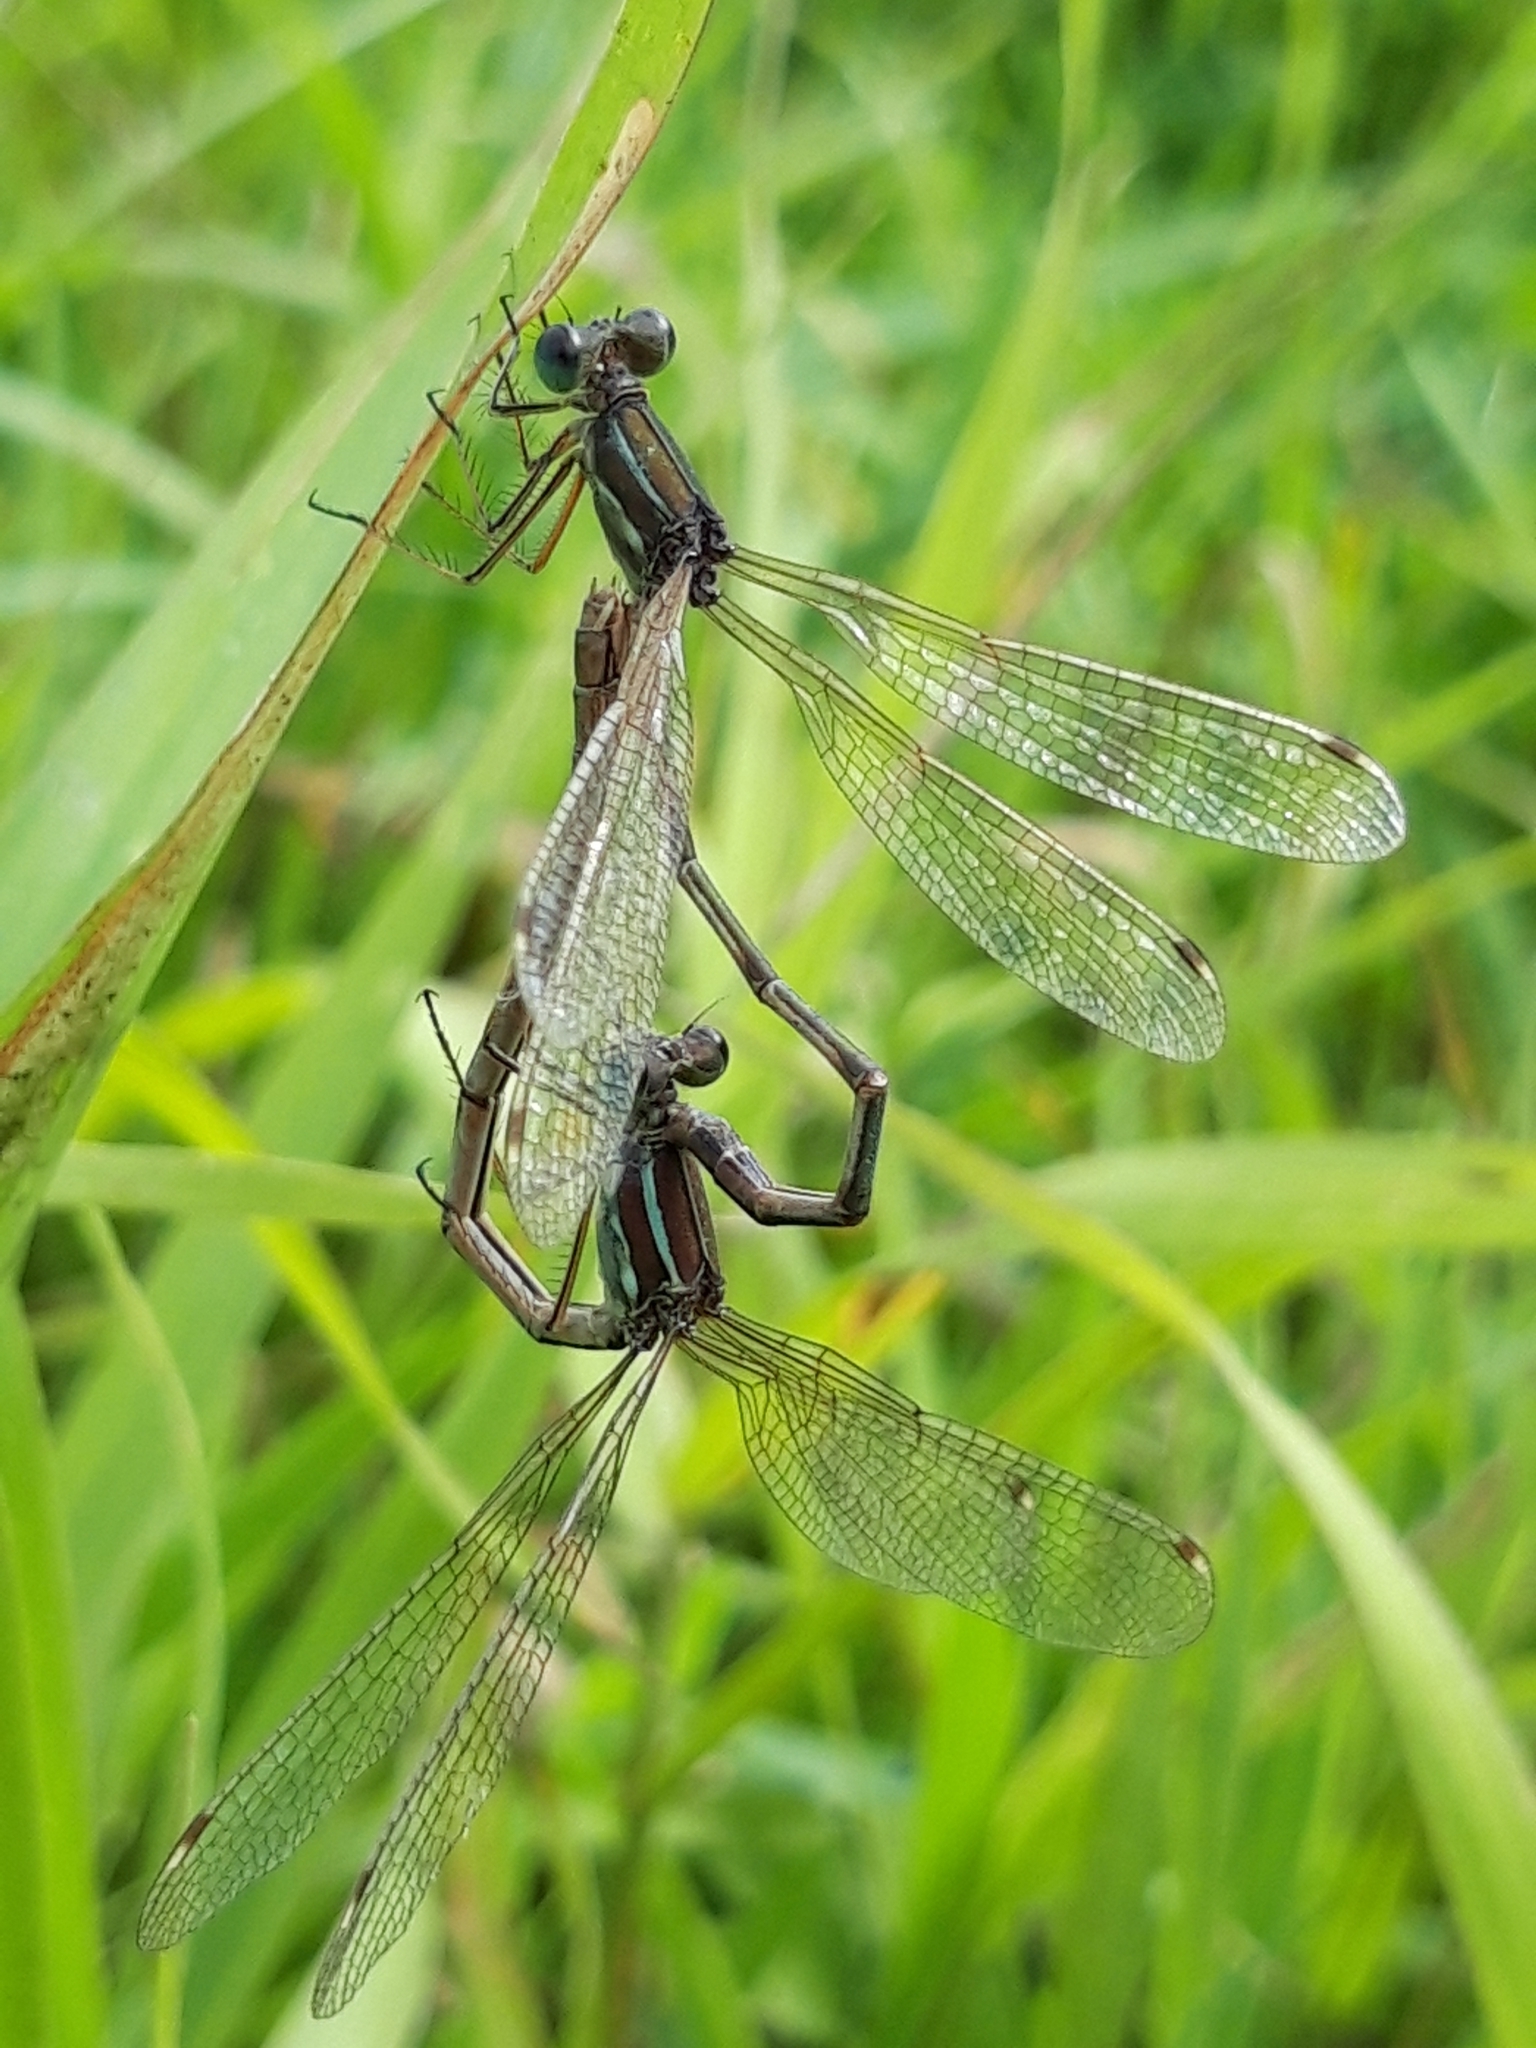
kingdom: Animalia
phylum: Arthropoda
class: Insecta
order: Odonata
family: Lestidae
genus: Lestes
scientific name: Lestes barbarus
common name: Migrant spreadwing
